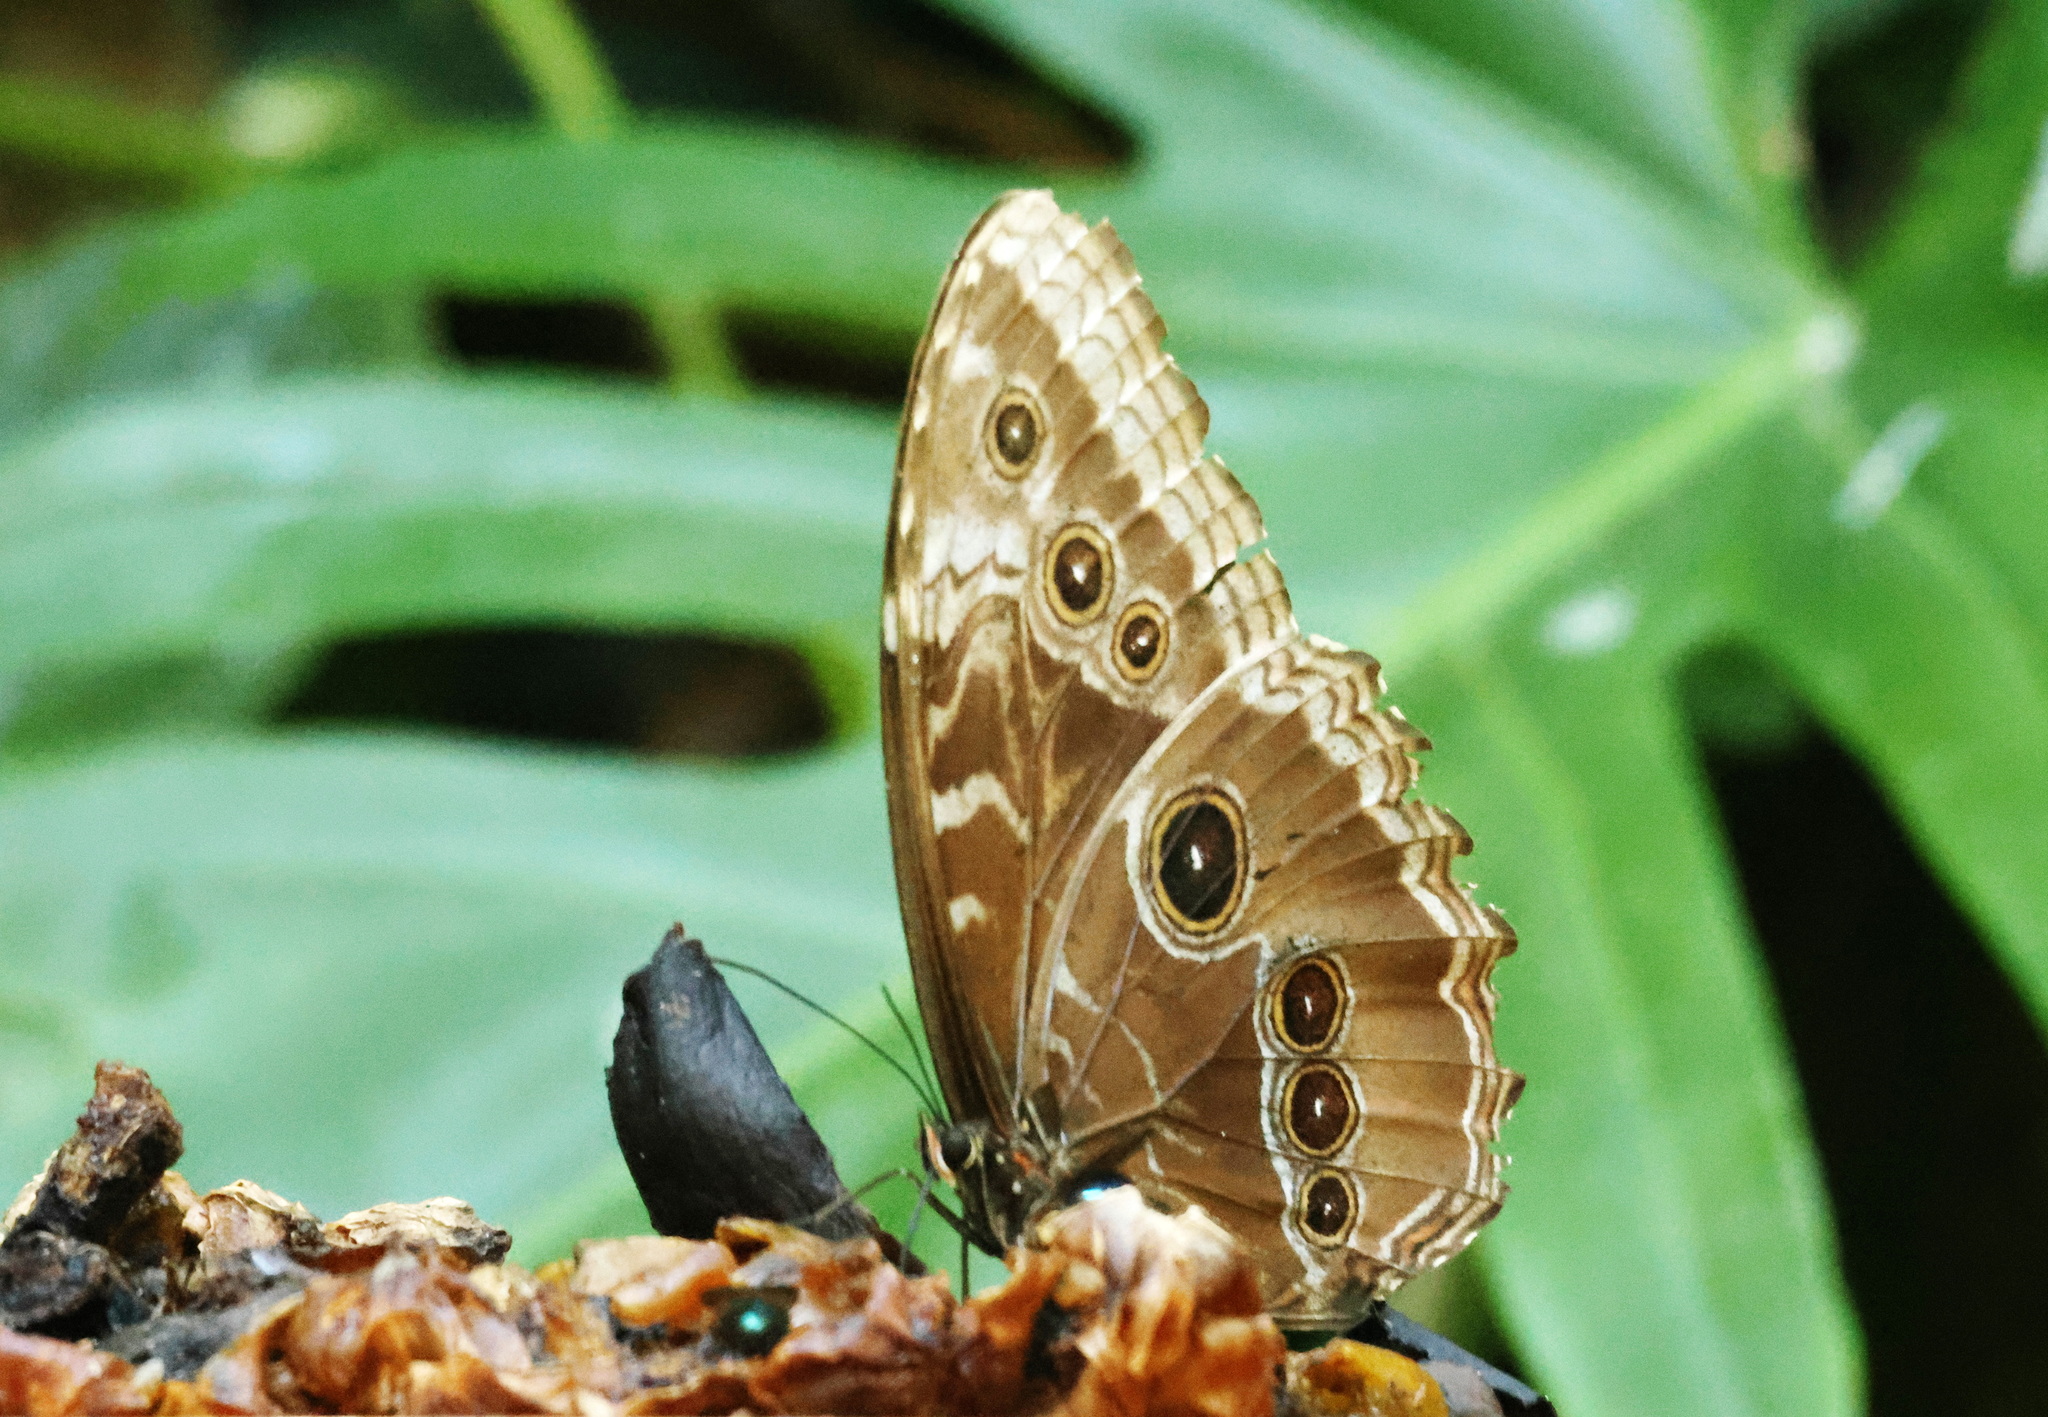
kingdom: Animalia
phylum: Arthropoda
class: Insecta
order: Lepidoptera
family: Nymphalidae
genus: Morpho
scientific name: Morpho helenor
